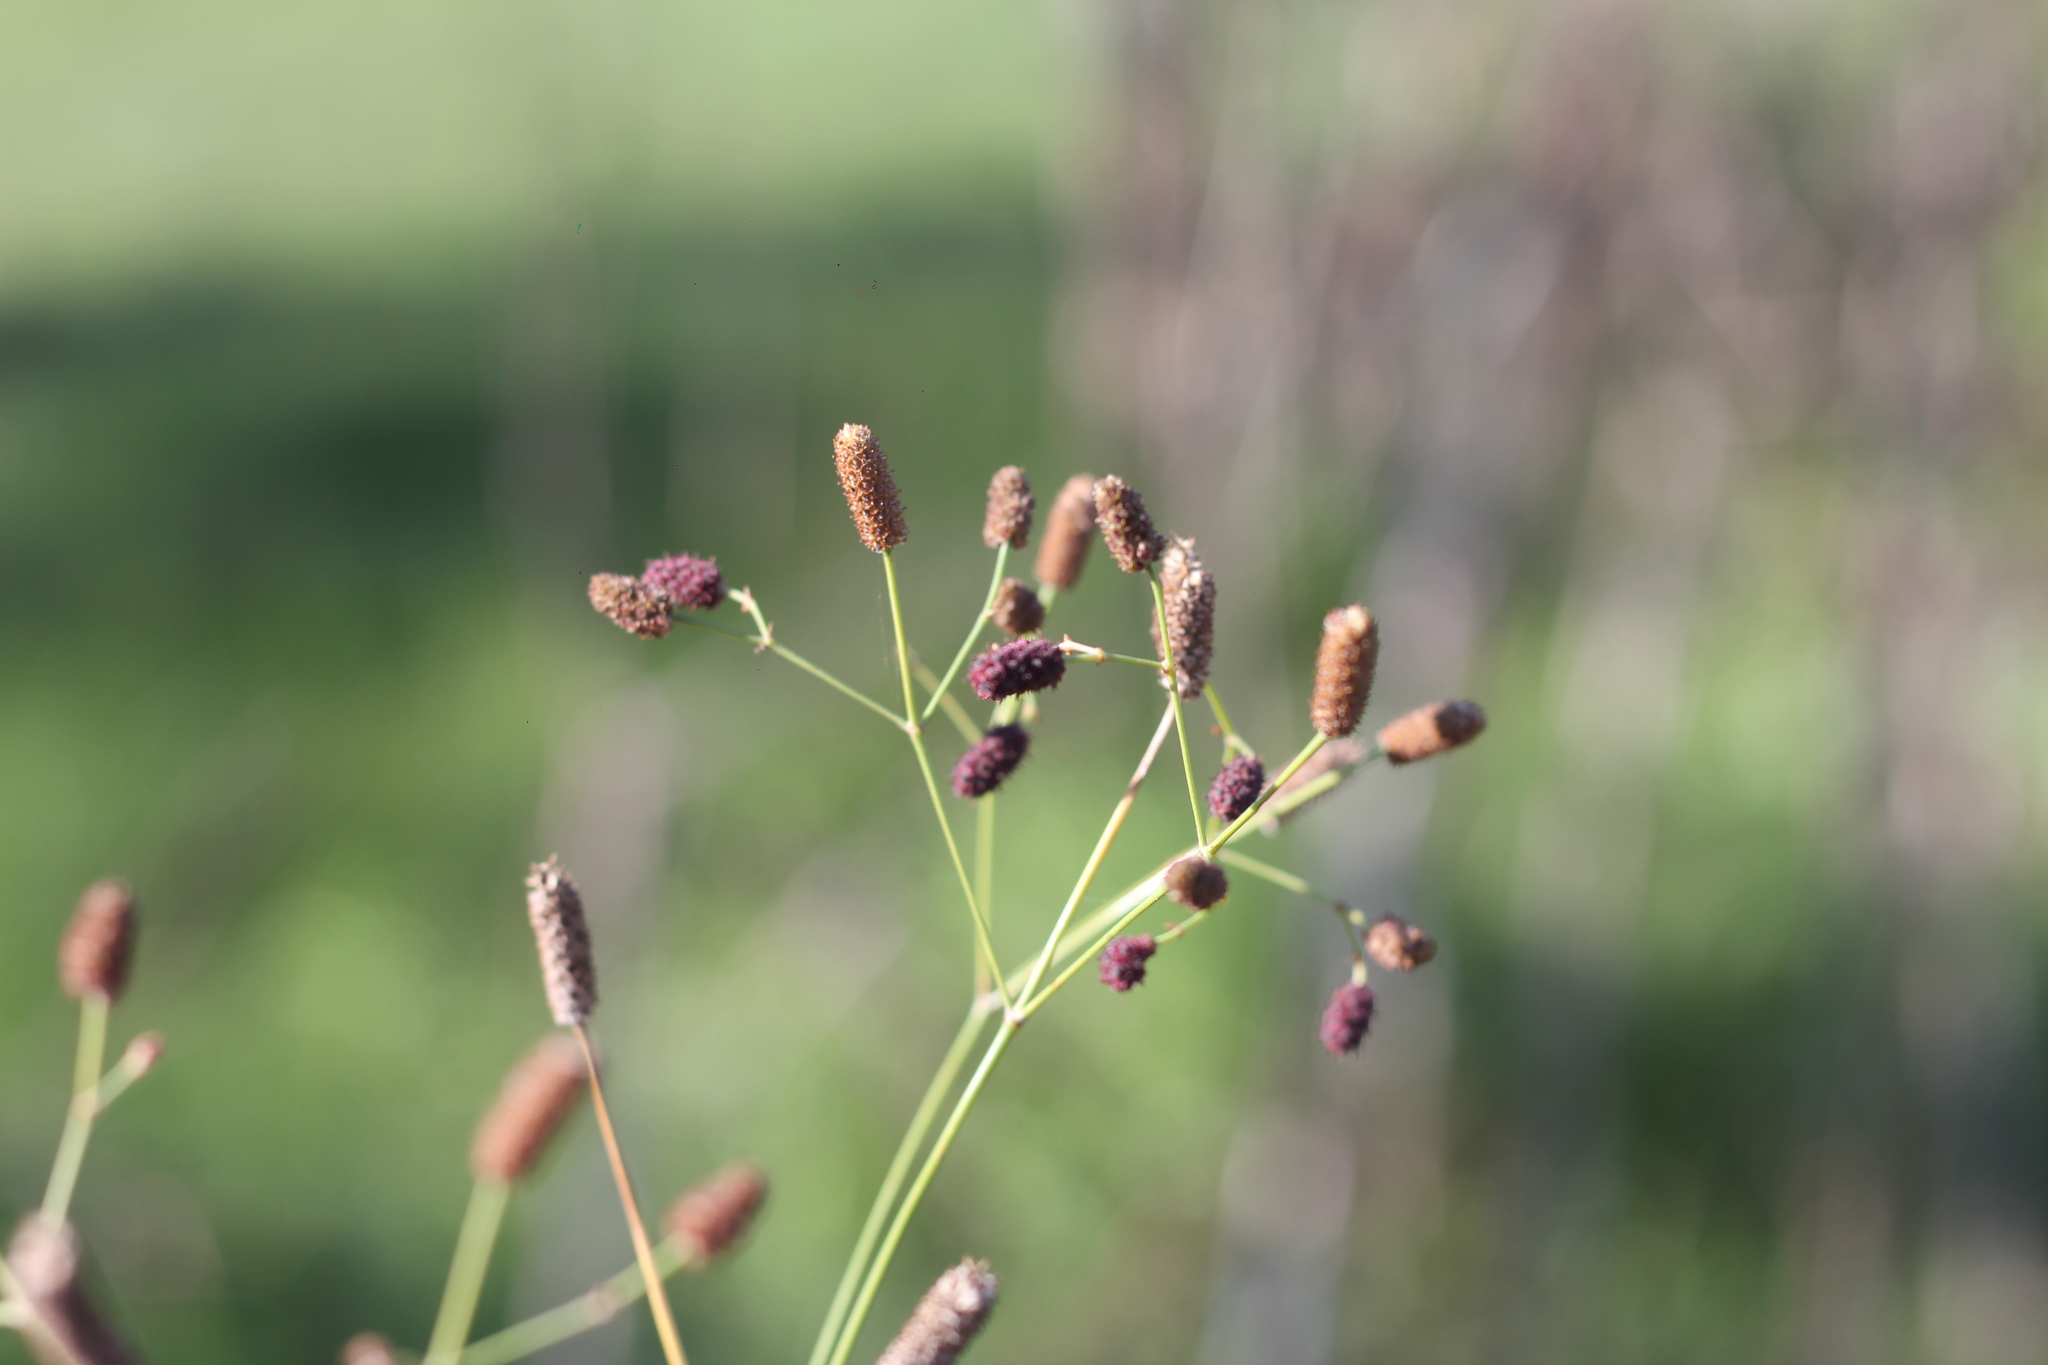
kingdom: Plantae
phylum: Tracheophyta
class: Magnoliopsida
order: Apiales
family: Apiaceae
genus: Eryngium
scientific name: Eryngium ebracteatum
